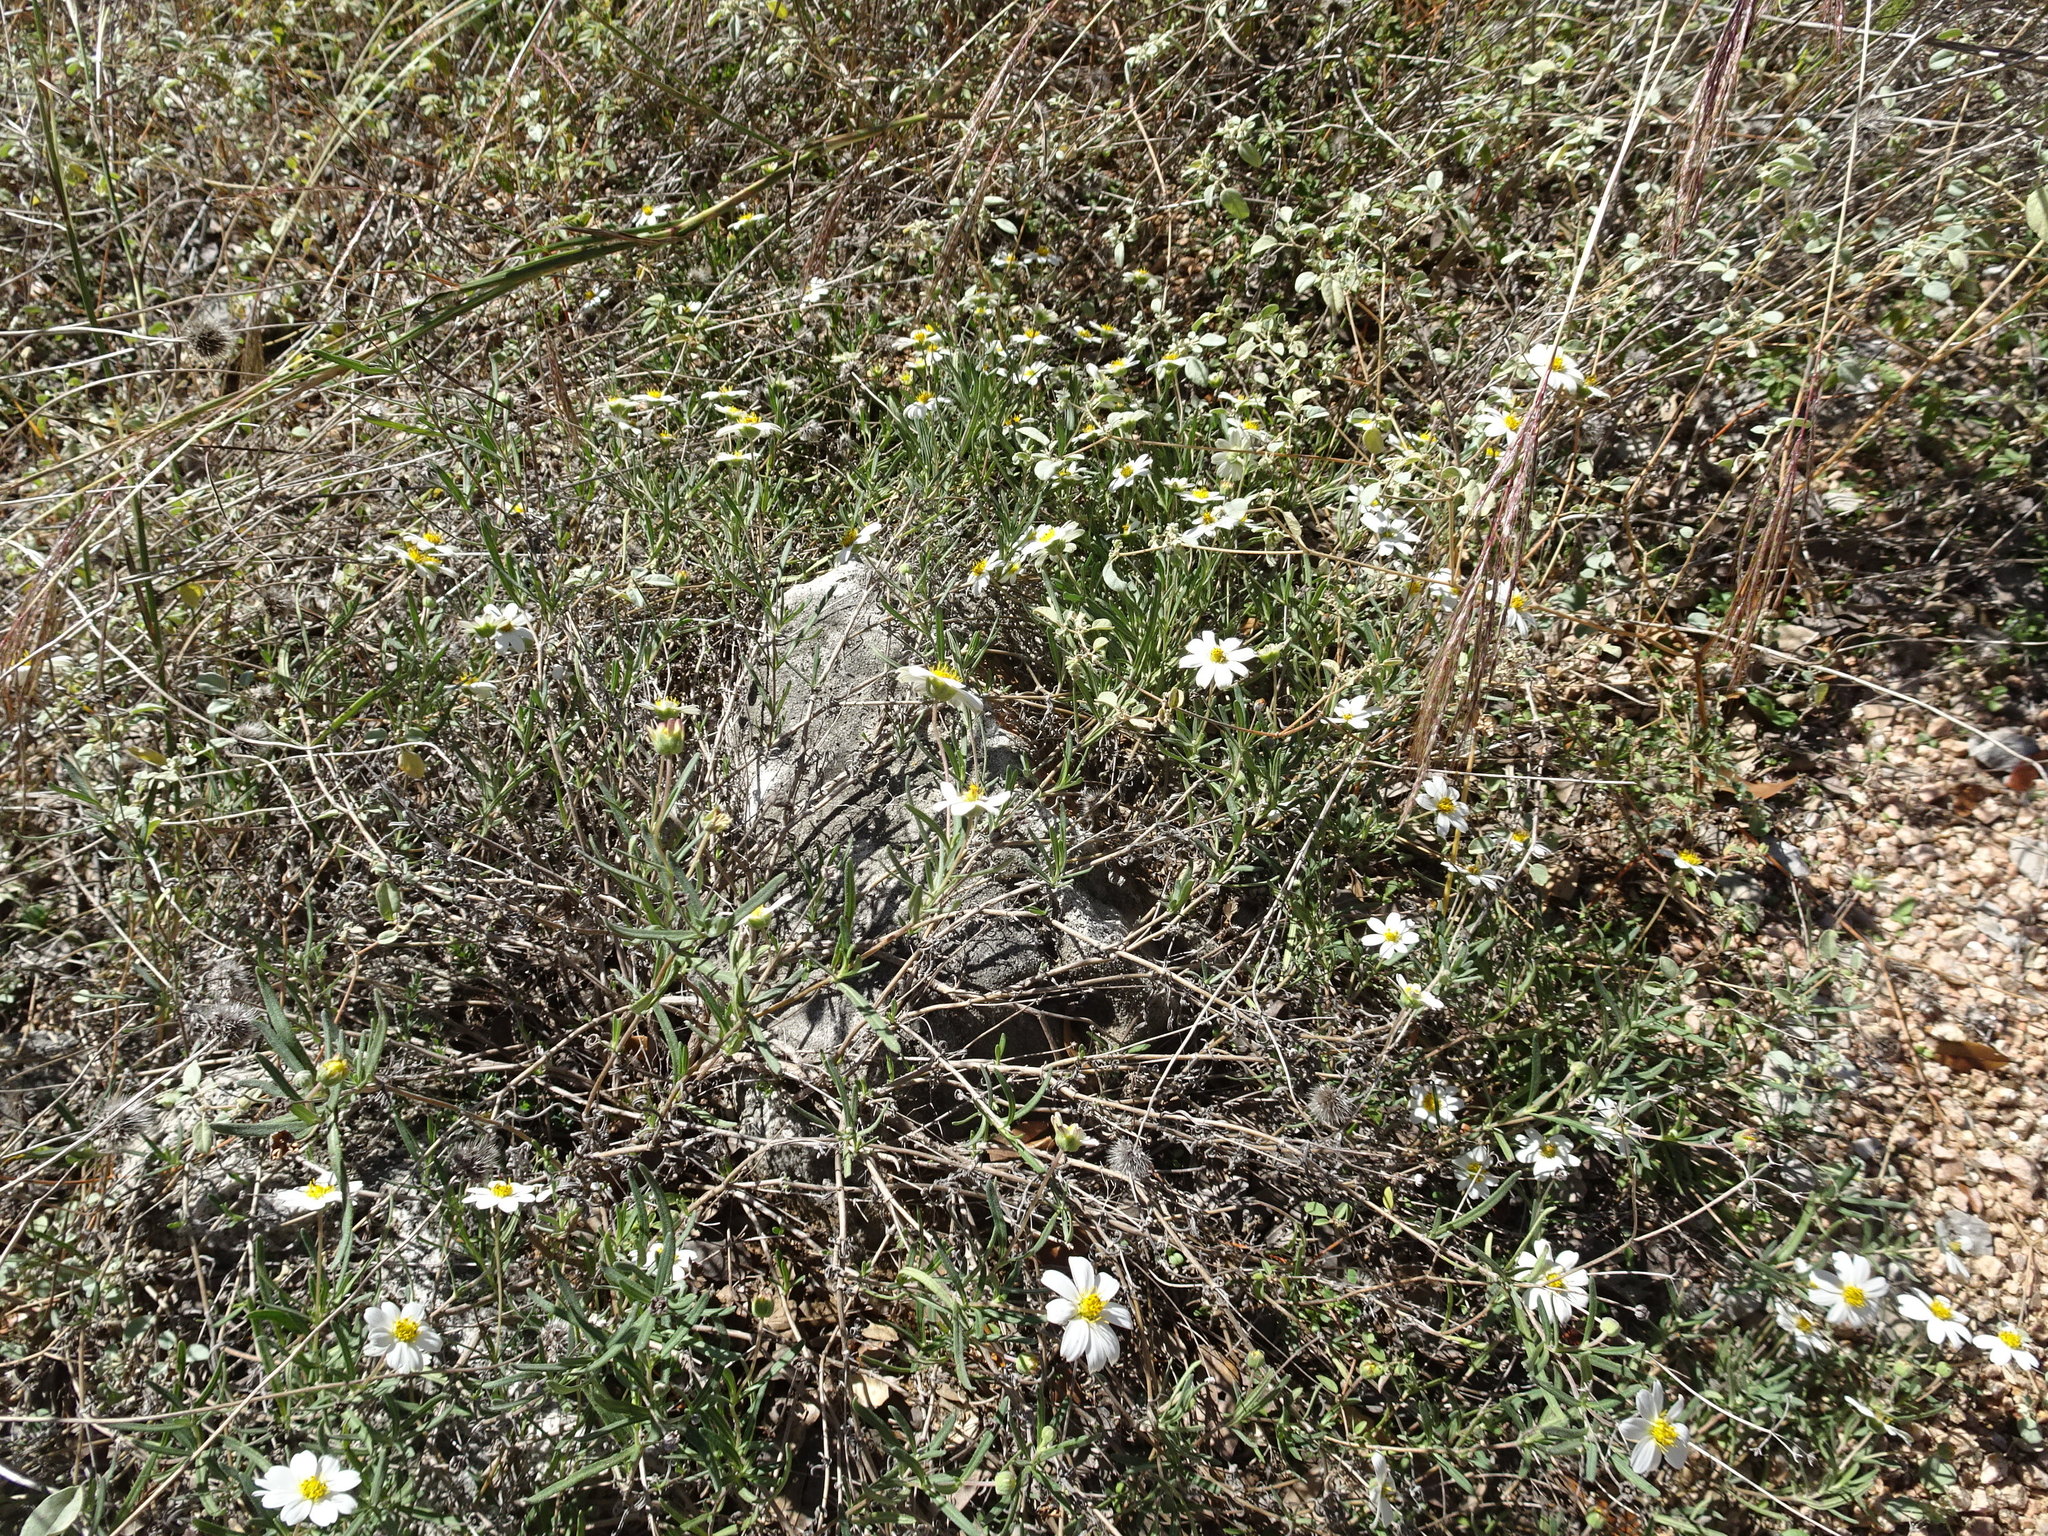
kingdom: Plantae
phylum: Tracheophyta
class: Magnoliopsida
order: Asterales
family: Asteraceae
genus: Melampodium
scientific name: Melampodium leucanthum
